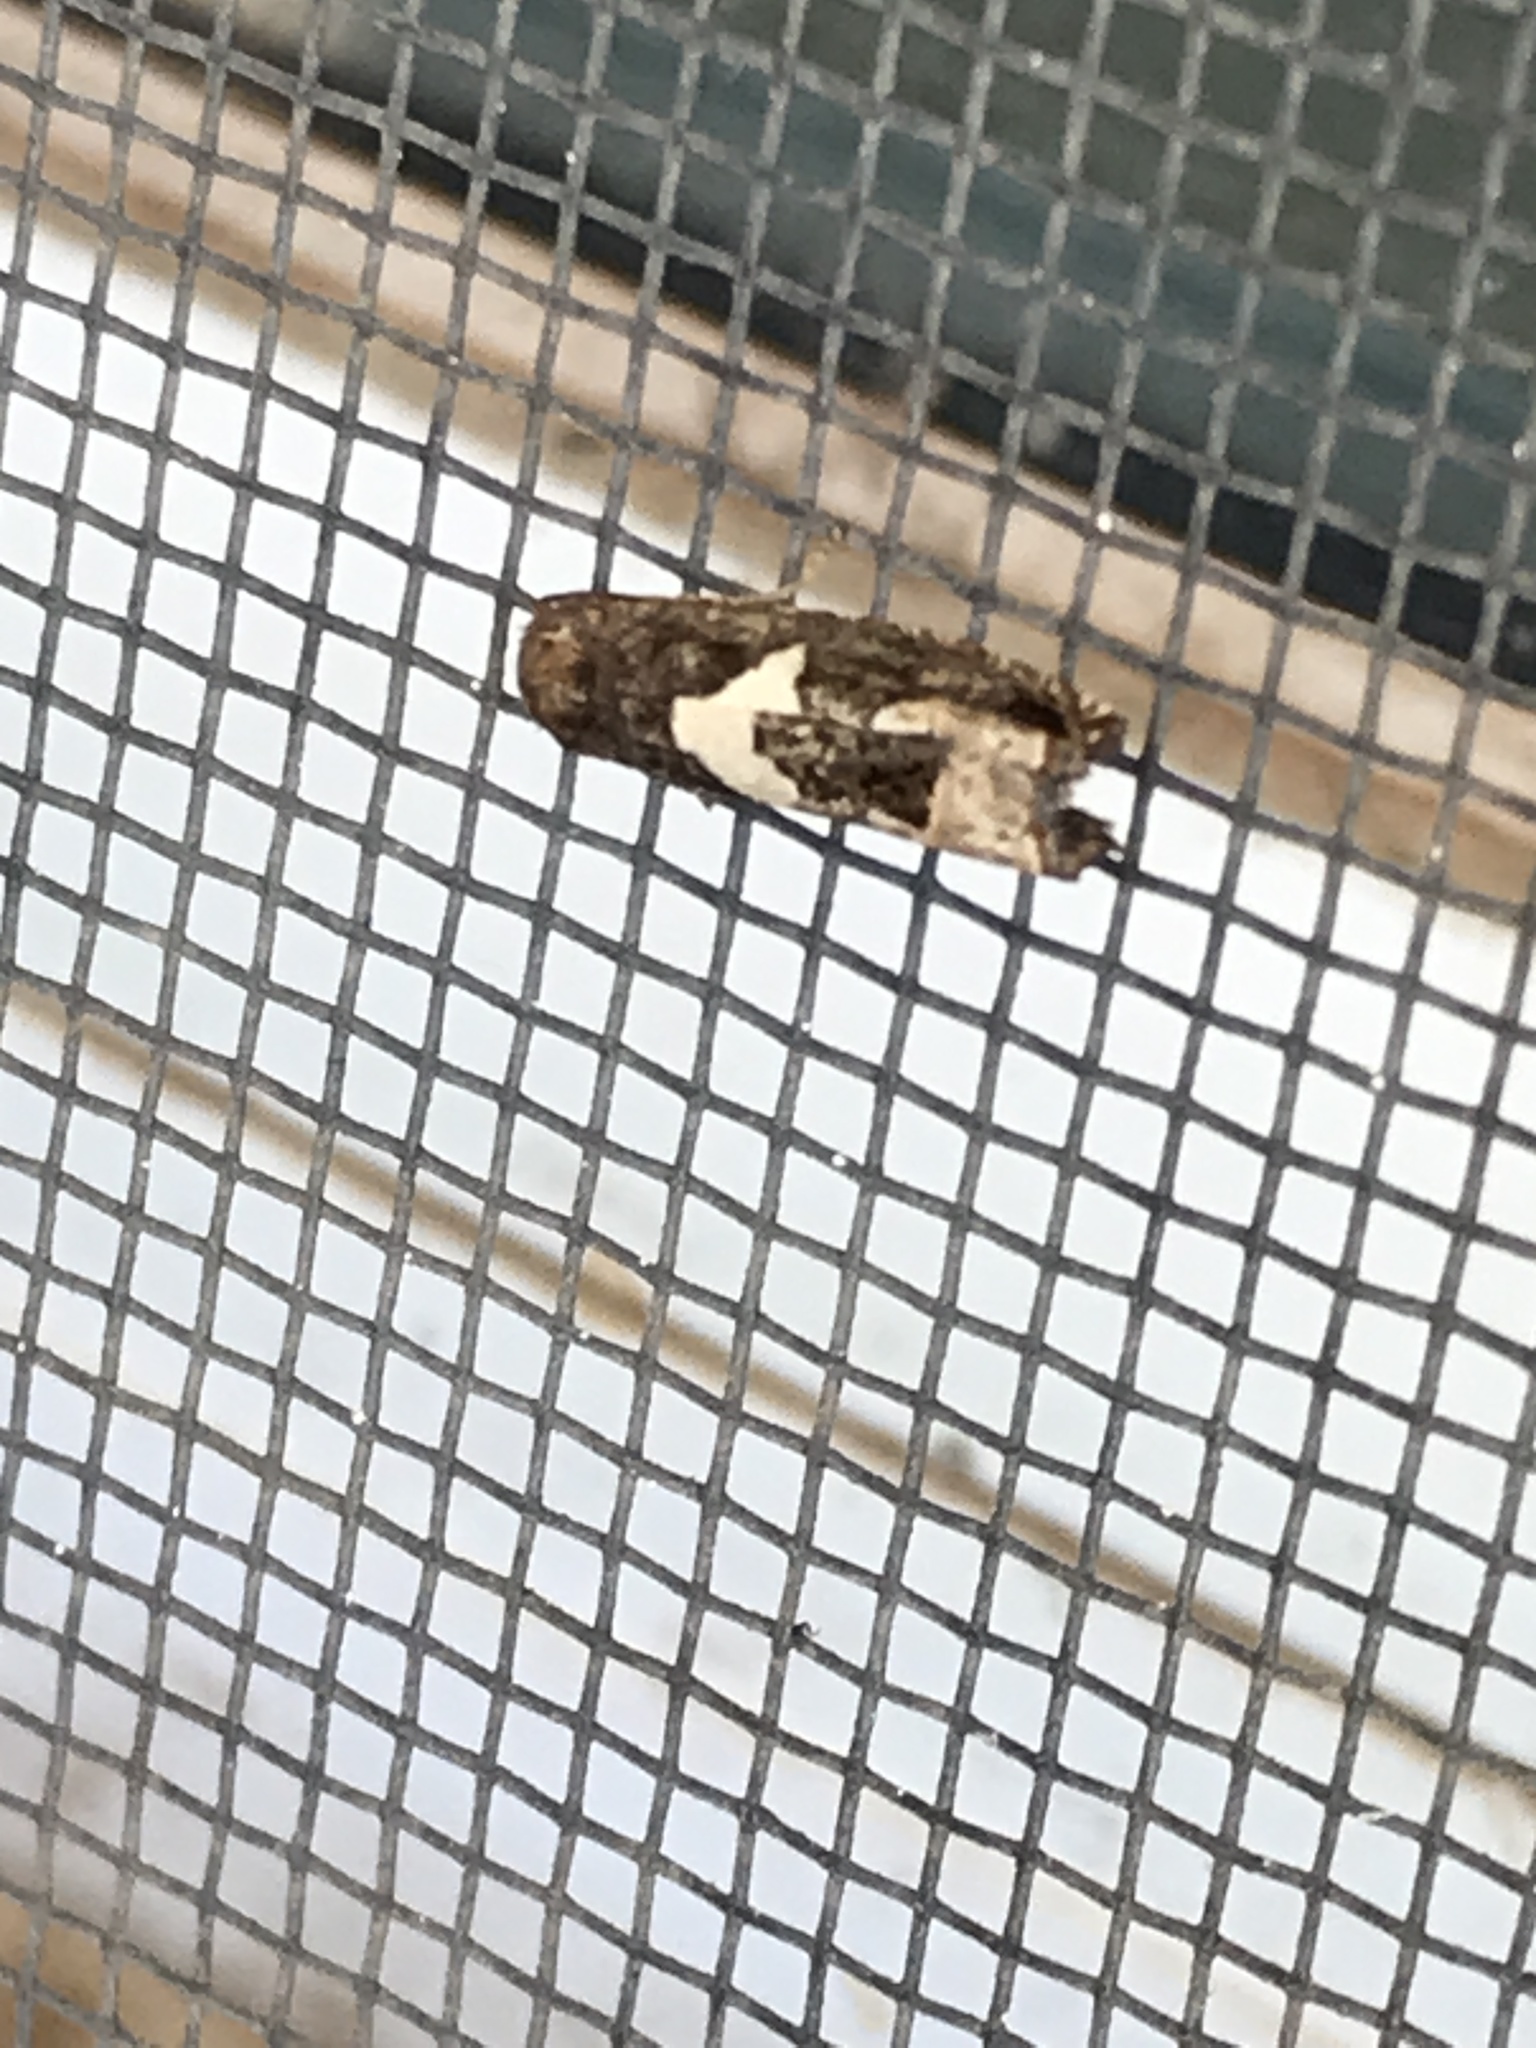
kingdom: Animalia
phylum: Arthropoda
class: Insecta
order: Lepidoptera
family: Tortricidae
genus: Epiblema
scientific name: Epiblema otiosana
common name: Bidens borer moth
